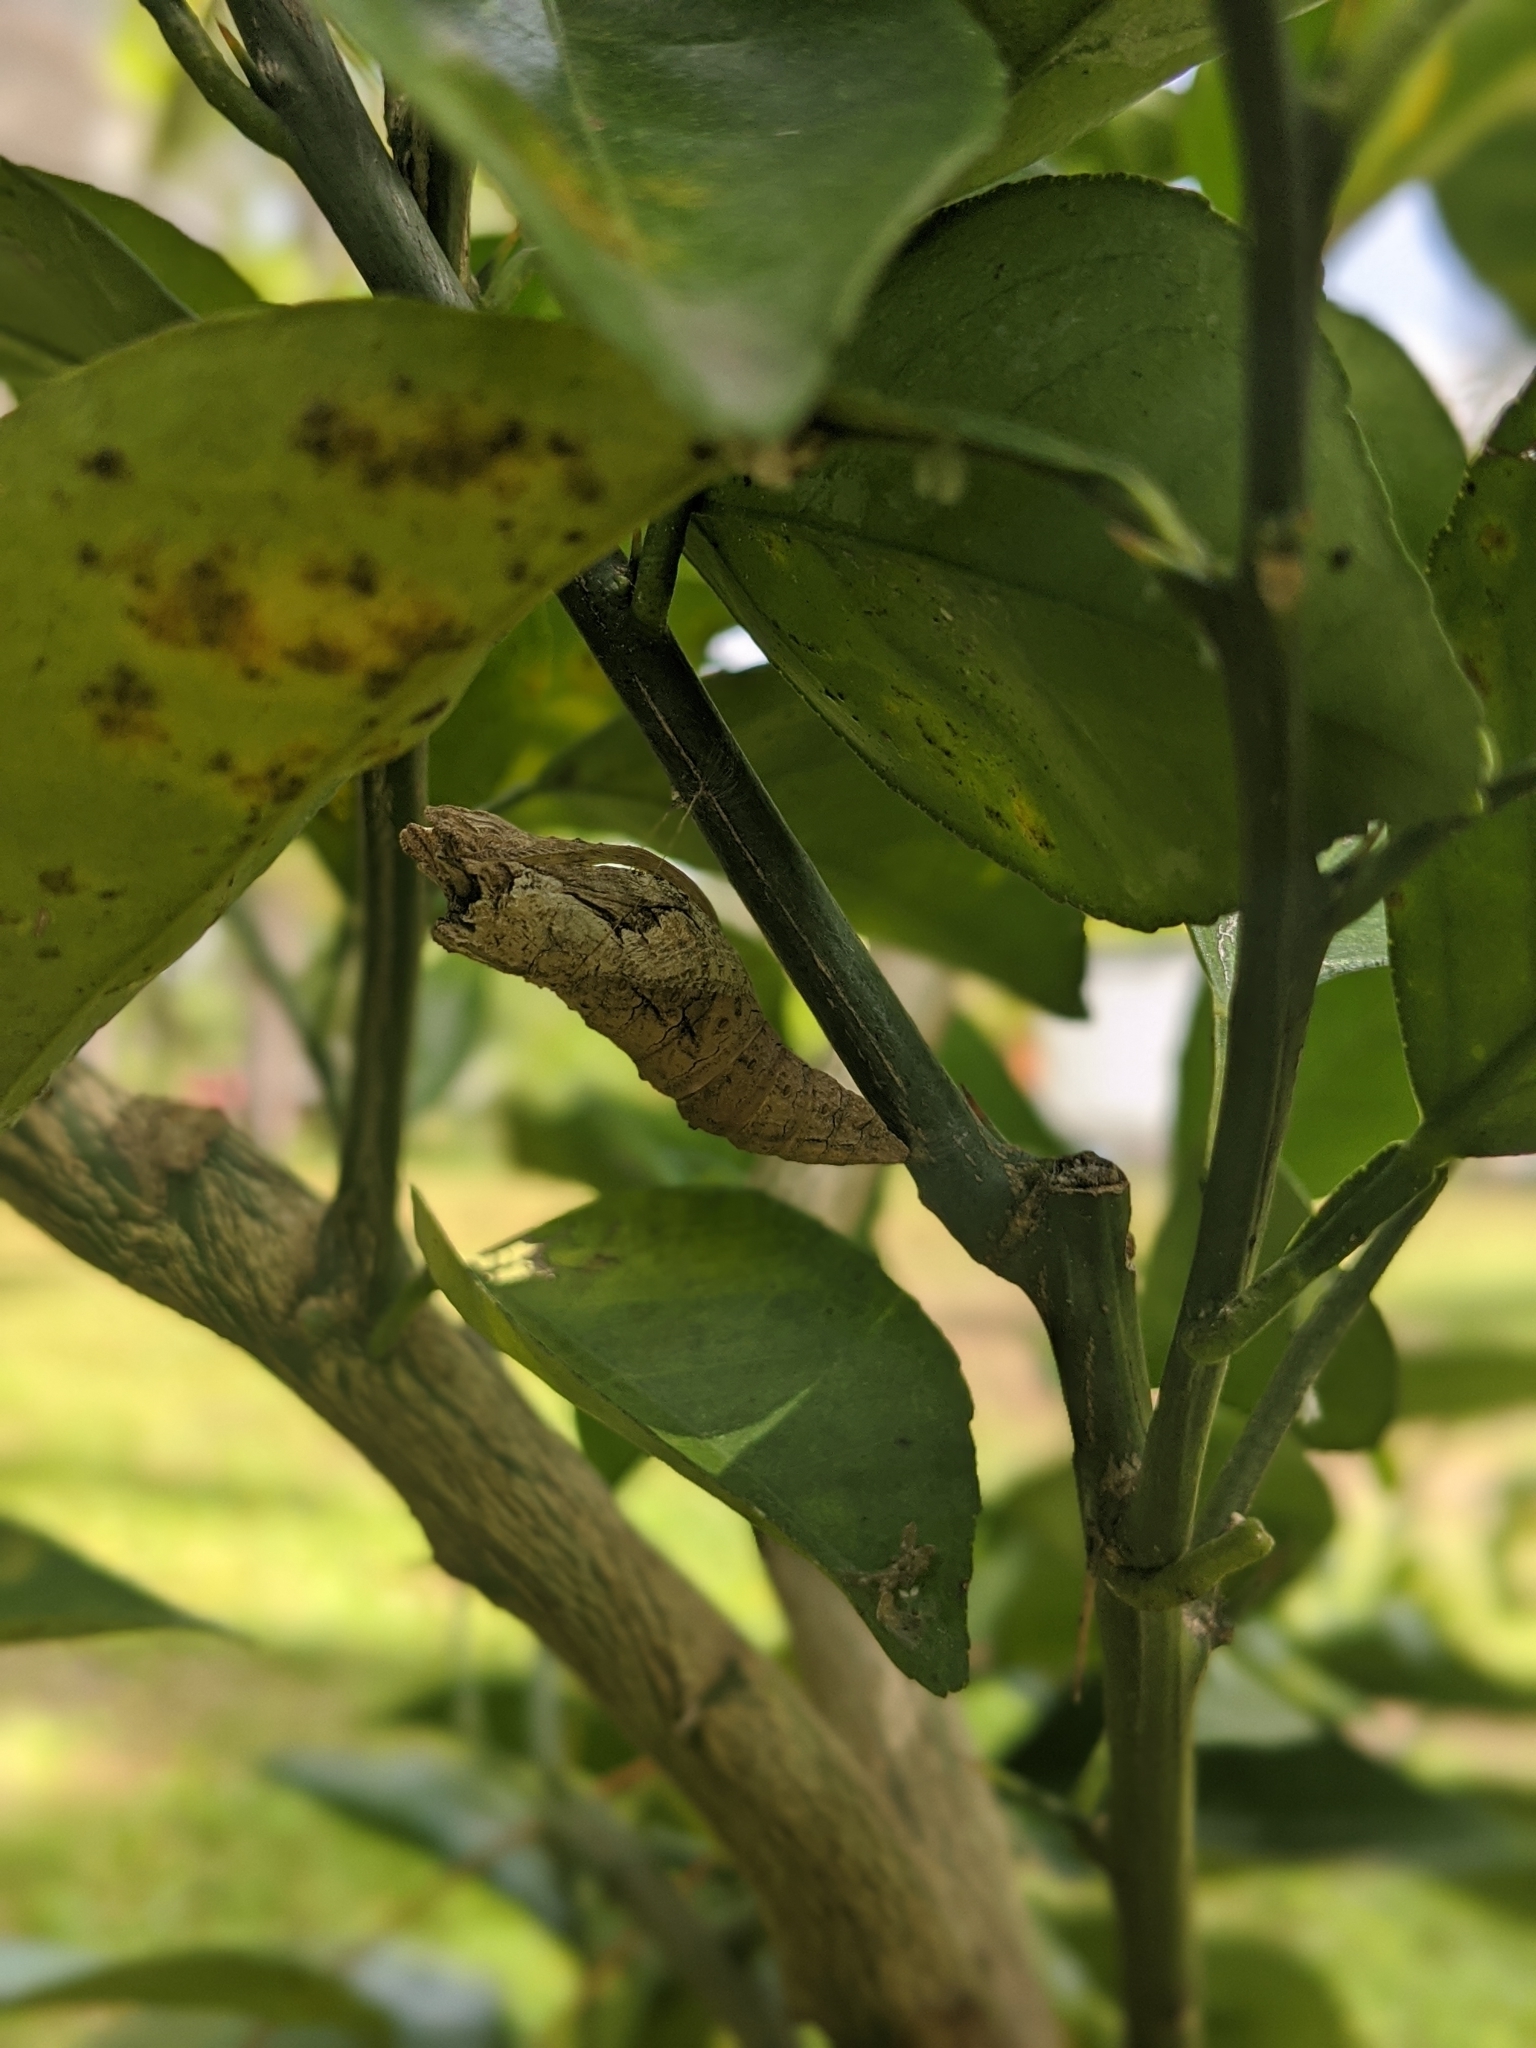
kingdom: Animalia
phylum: Arthropoda
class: Insecta
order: Lepidoptera
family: Papilionidae
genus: Papilio
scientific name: Papilio cresphontes
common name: Giant swallowtail
